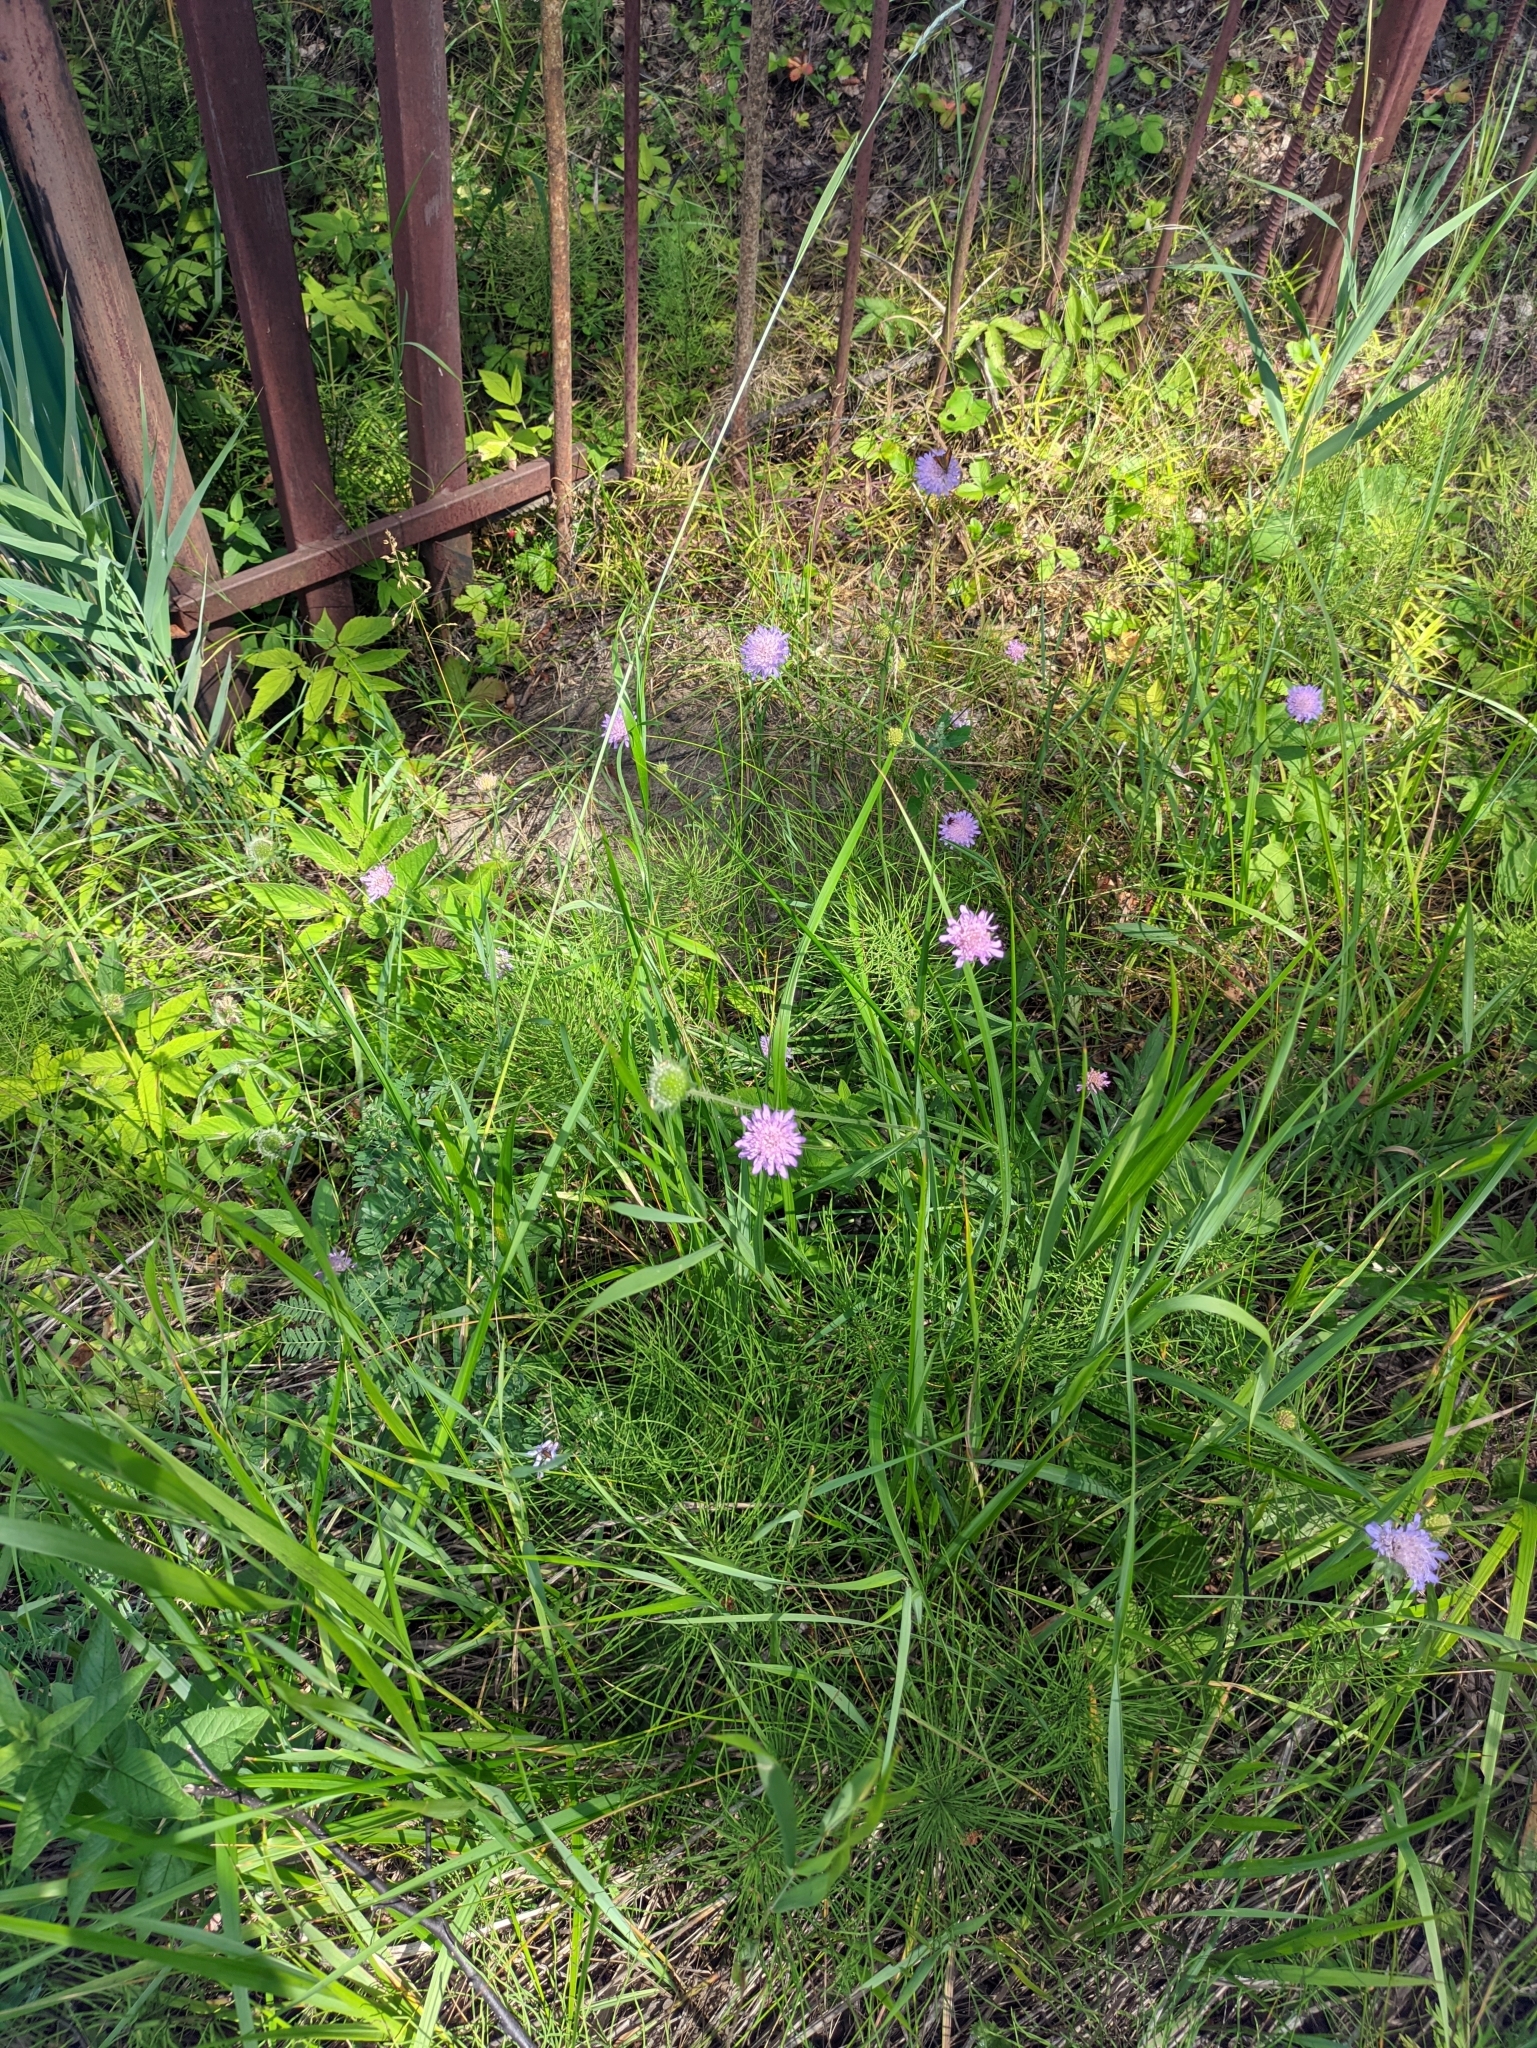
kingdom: Plantae
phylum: Tracheophyta
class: Magnoliopsida
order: Dipsacales
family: Caprifoliaceae
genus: Knautia
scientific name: Knautia arvensis
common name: Field scabiosa
